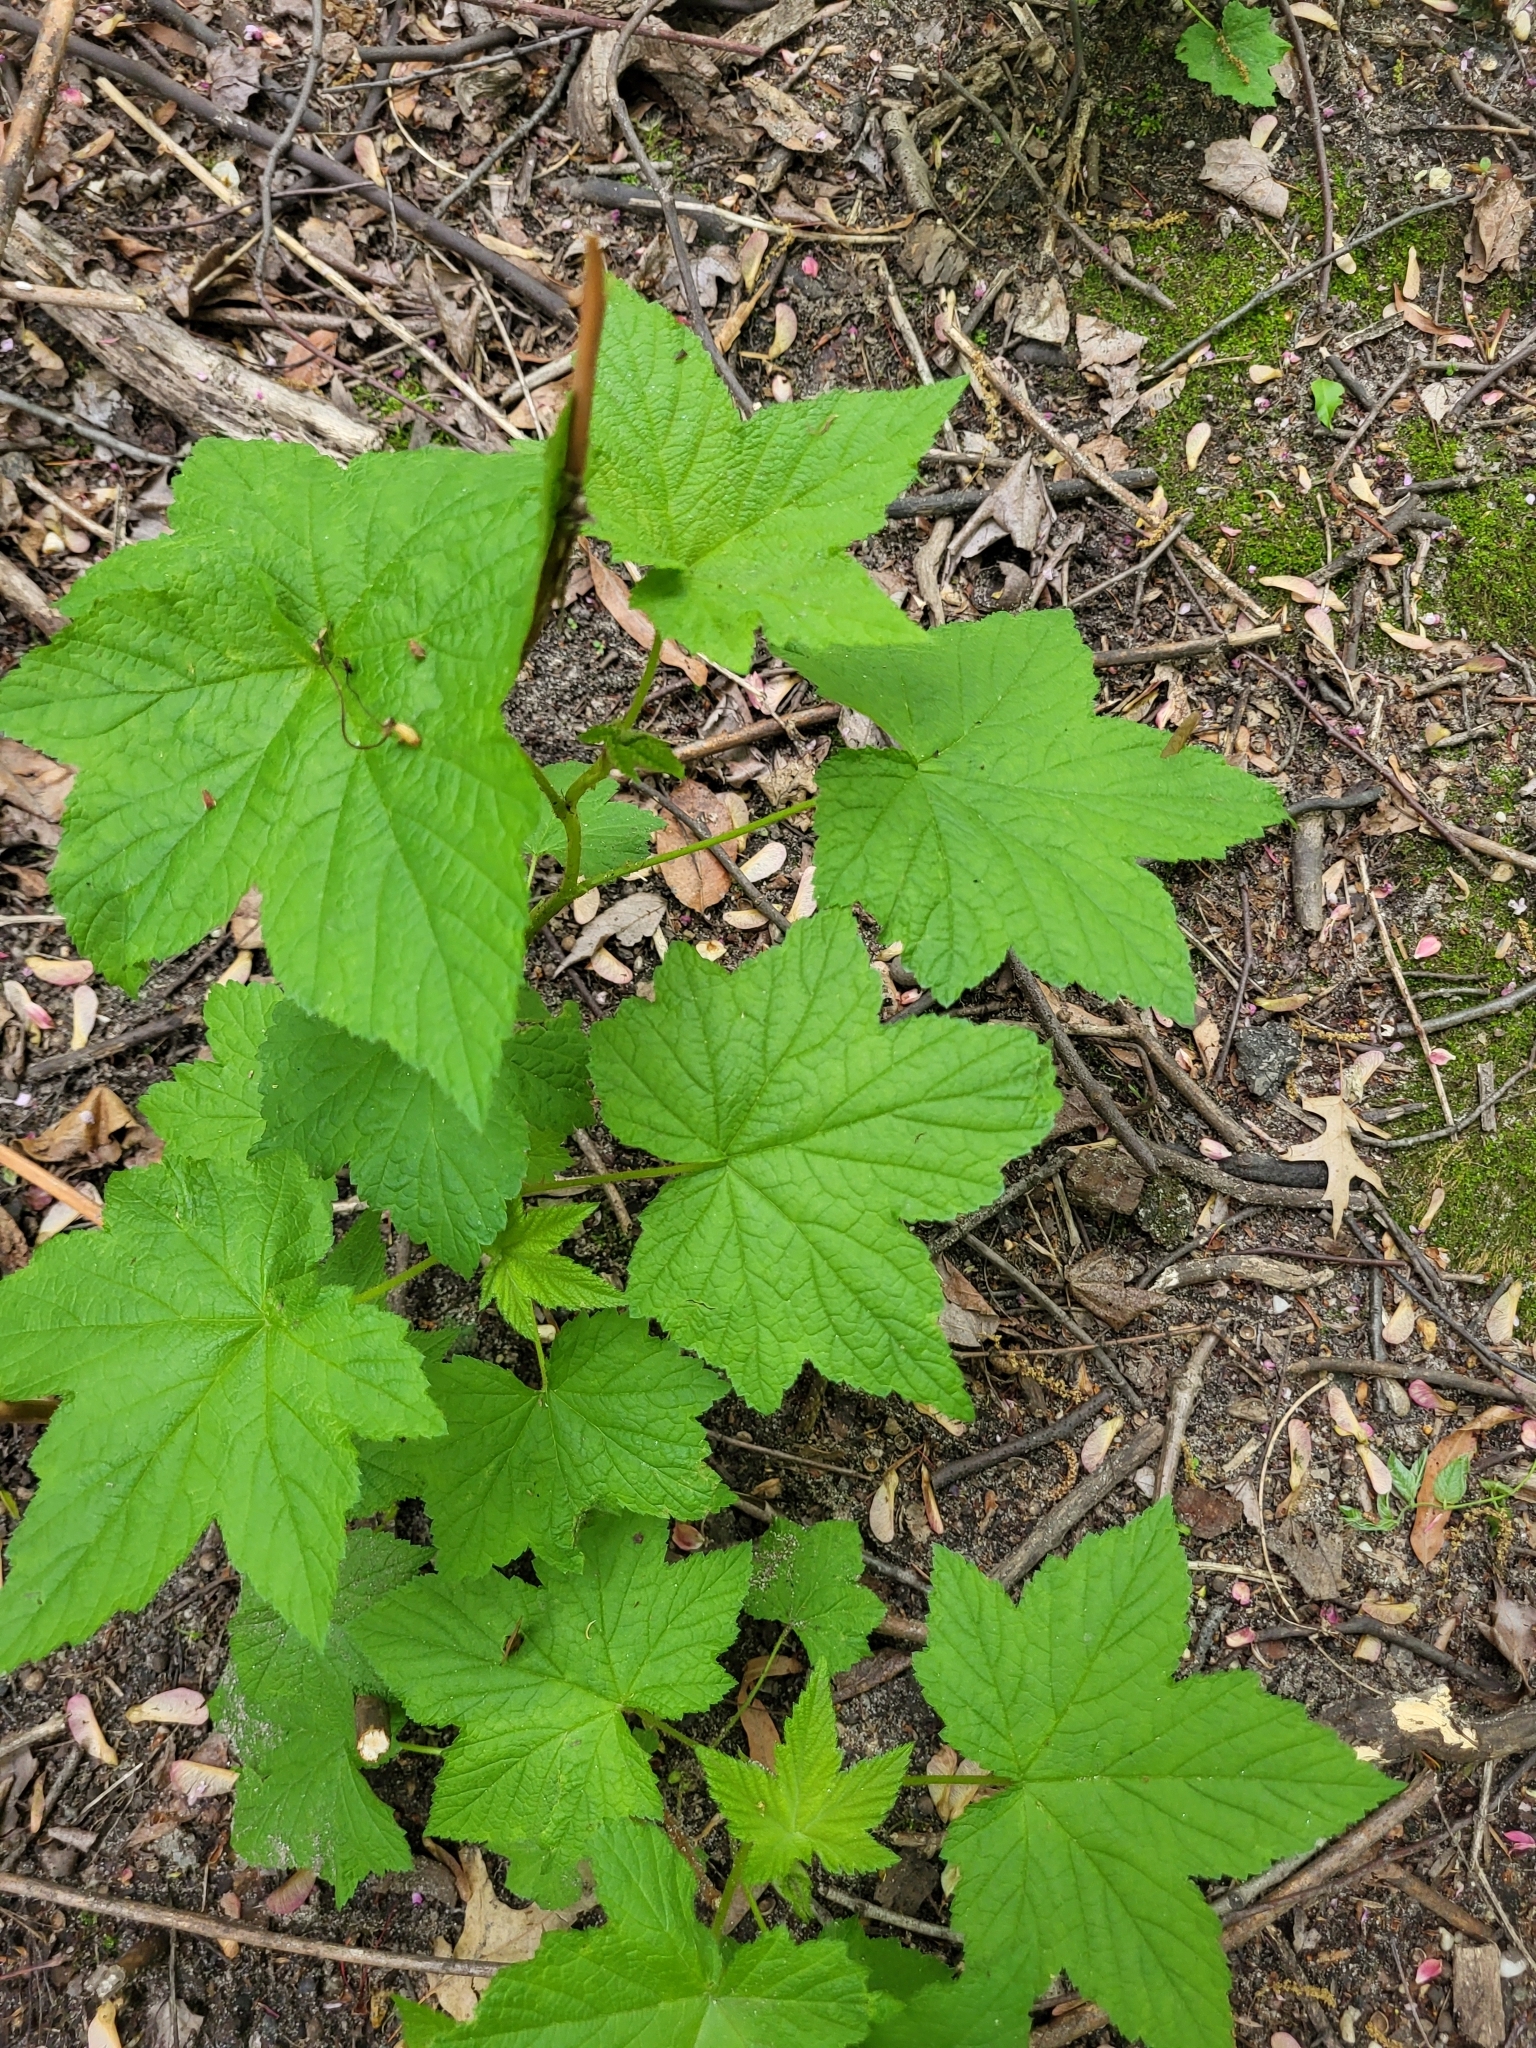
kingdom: Plantae
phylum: Tracheophyta
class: Magnoliopsida
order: Rosales
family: Rosaceae
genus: Rubus
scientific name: Rubus odoratus
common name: Purple-flowered raspberry
